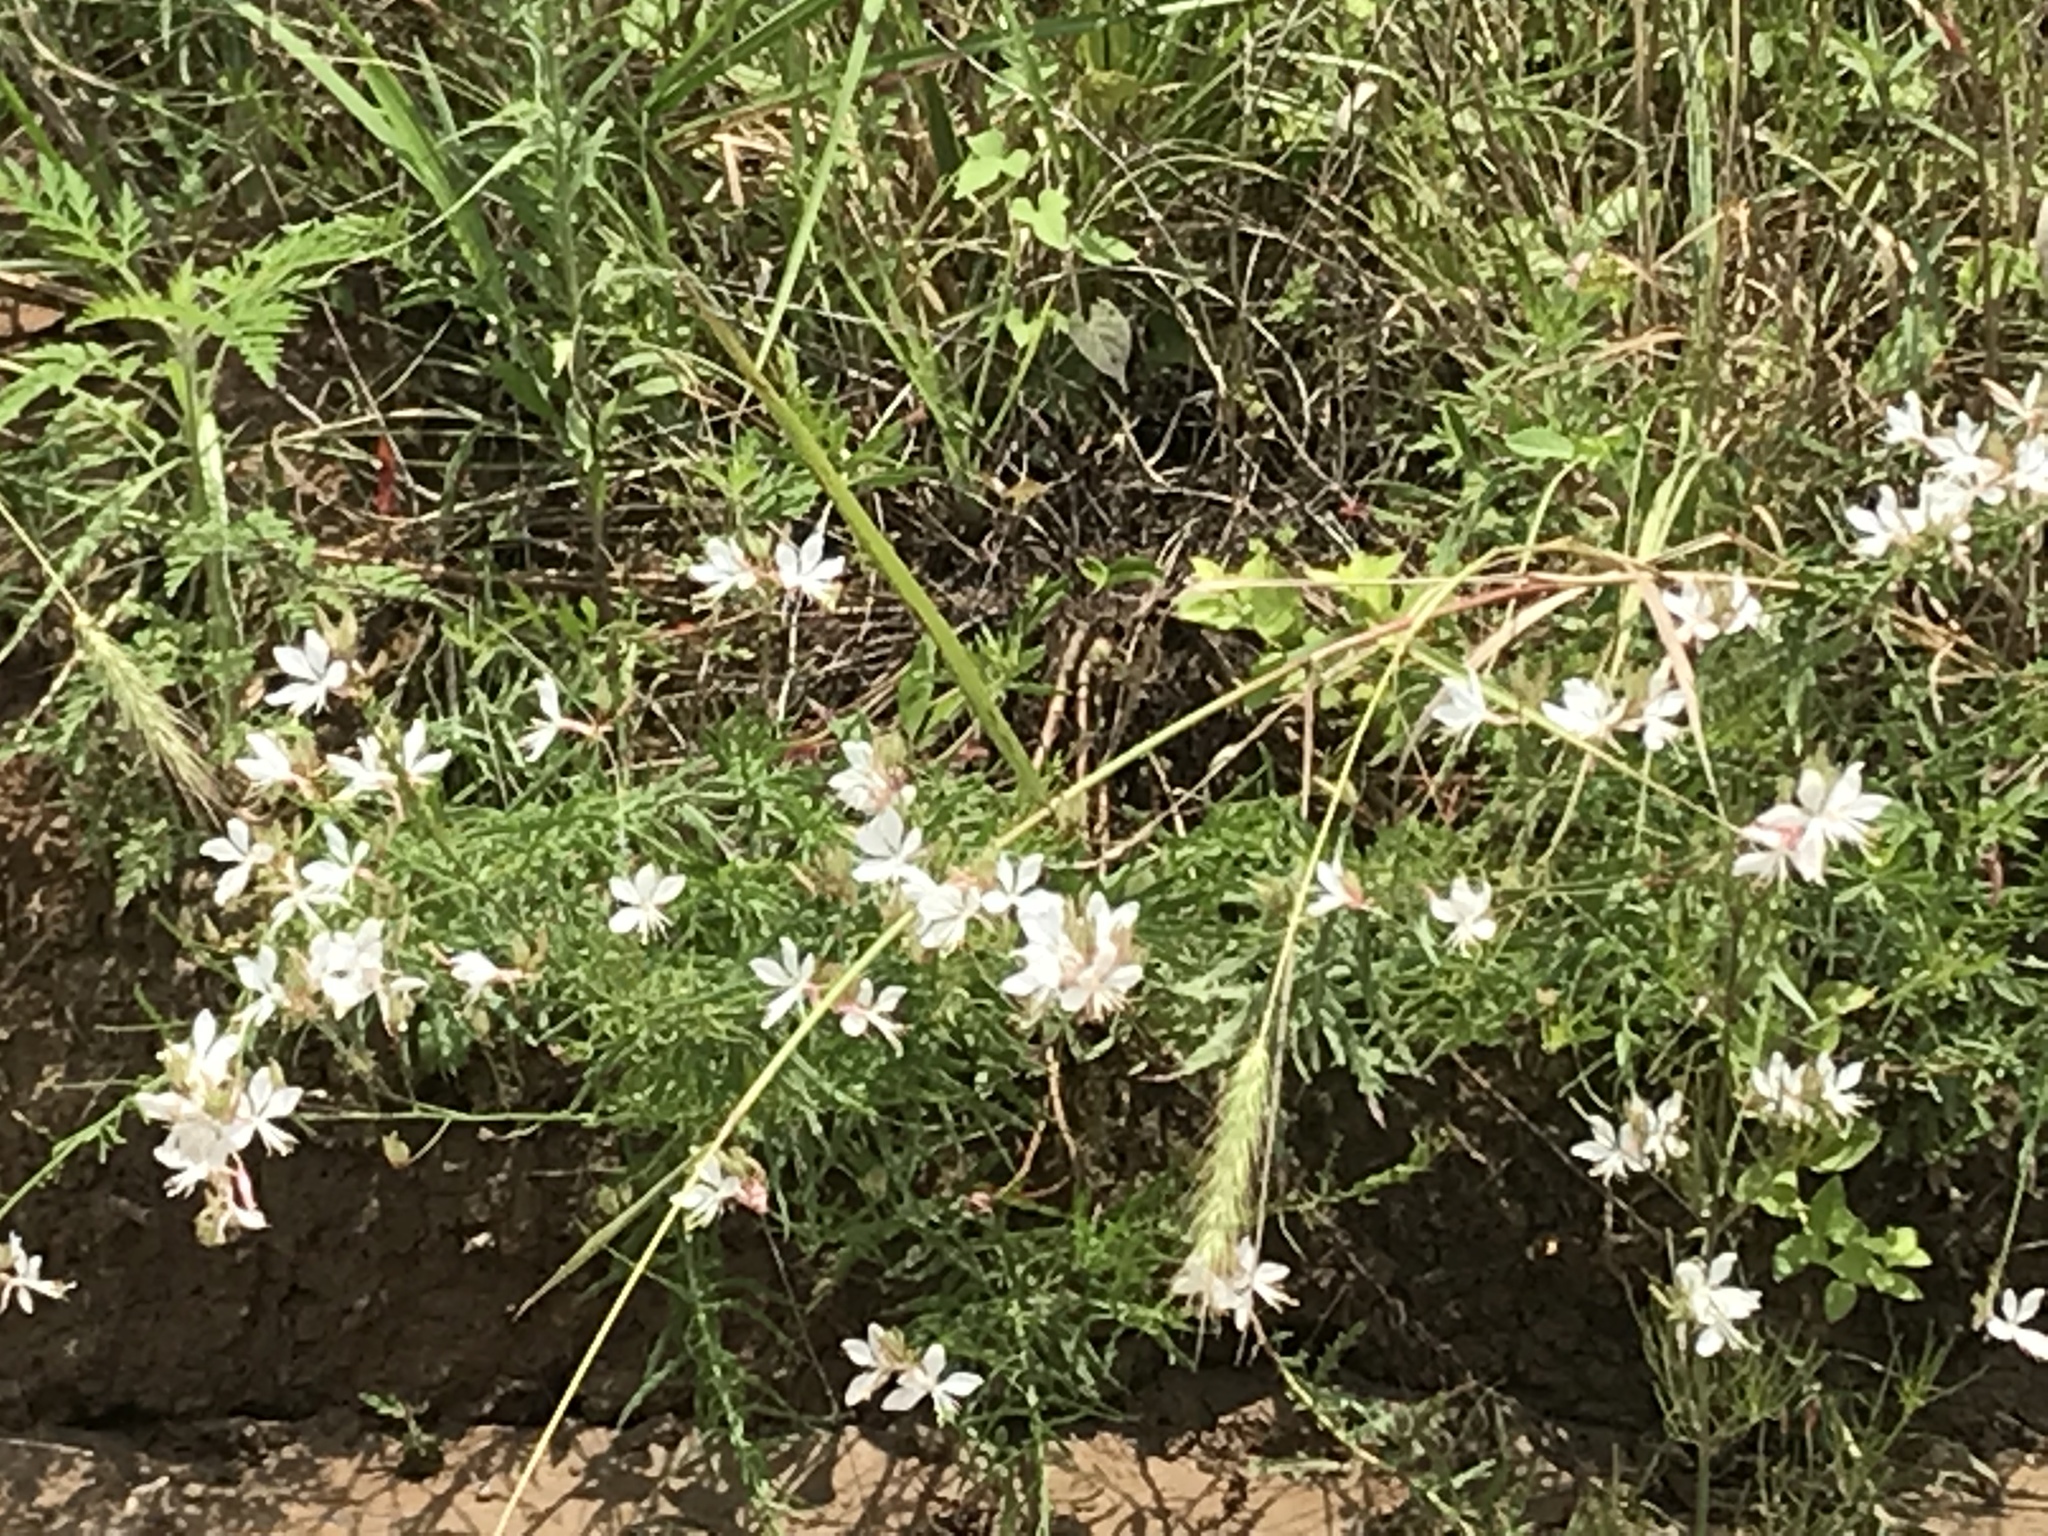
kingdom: Plantae
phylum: Tracheophyta
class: Magnoliopsida
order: Myrtales
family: Onagraceae
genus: Oenothera
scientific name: Oenothera lindheimeri
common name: Lindheimer's beeblossom
